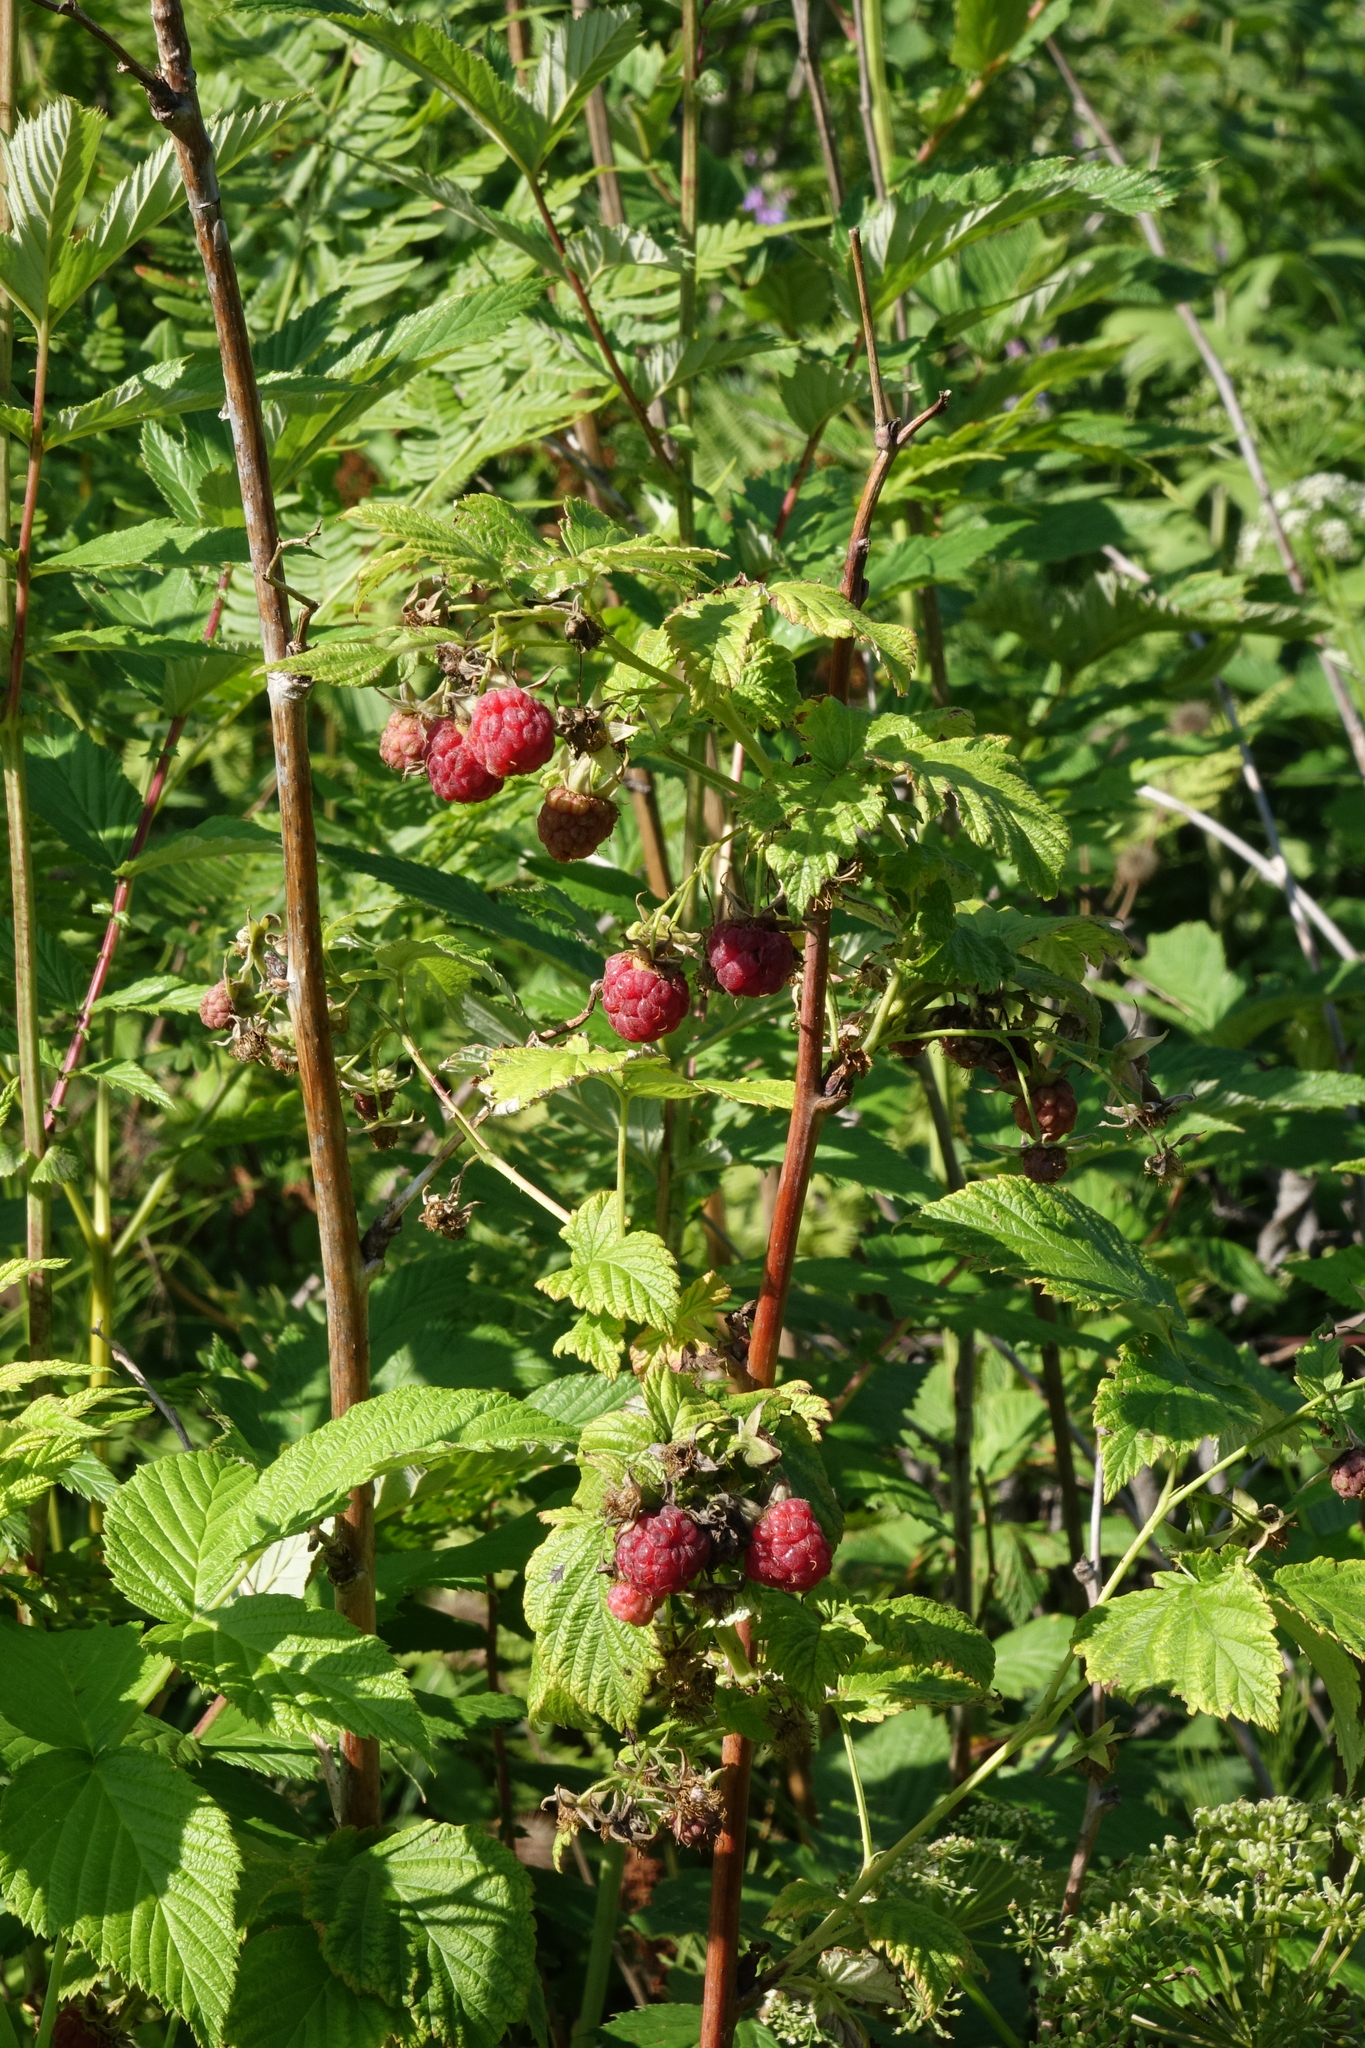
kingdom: Plantae
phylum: Tracheophyta
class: Magnoliopsida
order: Rosales
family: Rosaceae
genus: Rubus
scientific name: Rubus idaeus
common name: Raspberry
